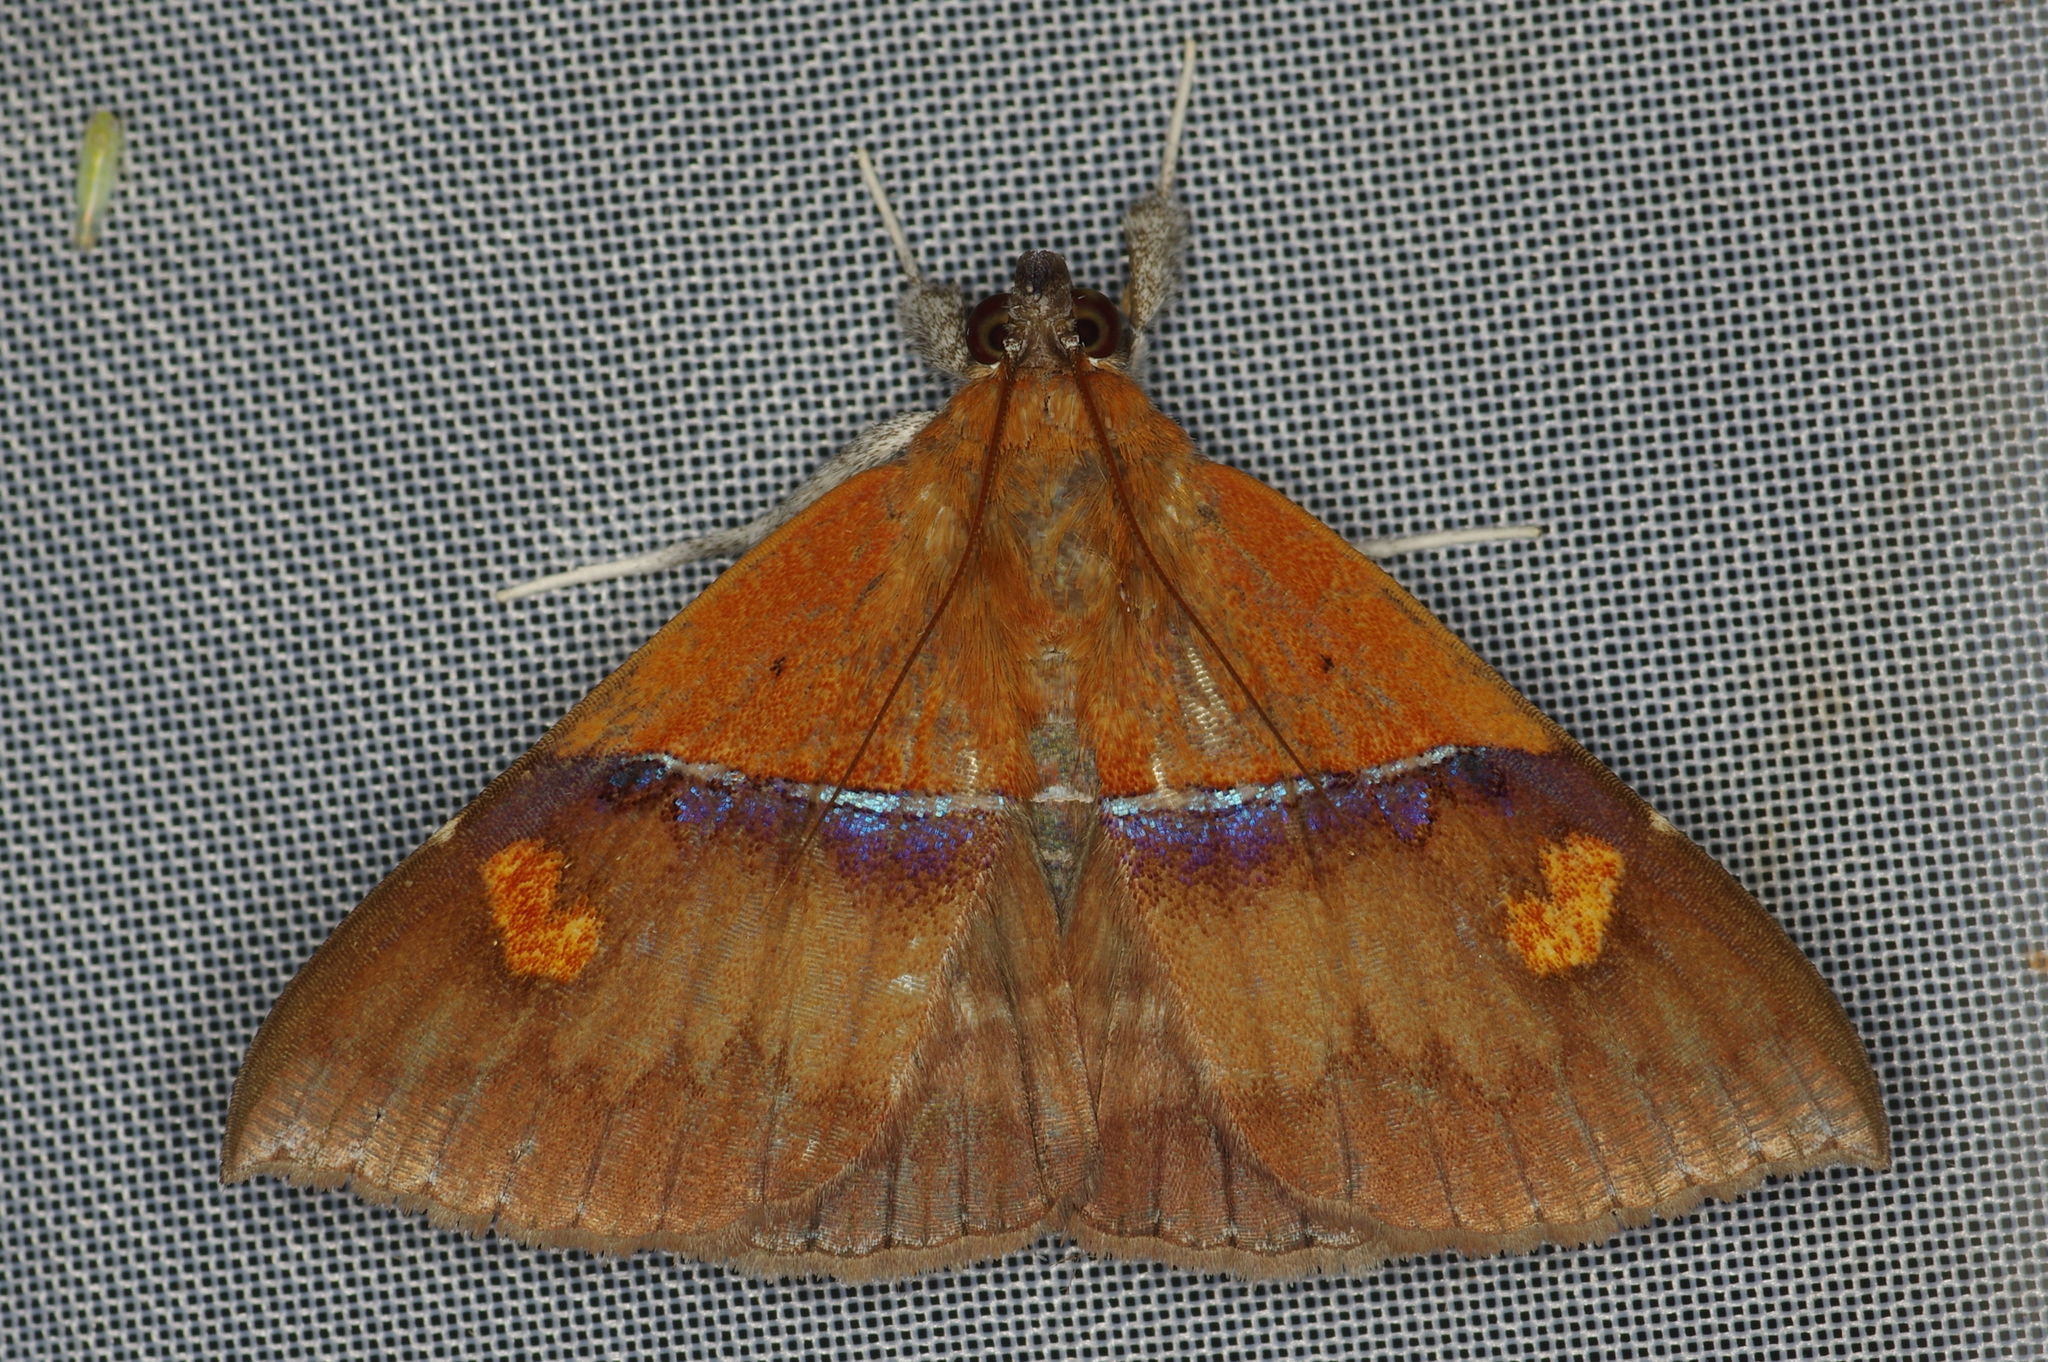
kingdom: Animalia
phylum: Arthropoda
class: Insecta
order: Lepidoptera
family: Erebidae
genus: Sympis
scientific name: Sympis rufibasis
